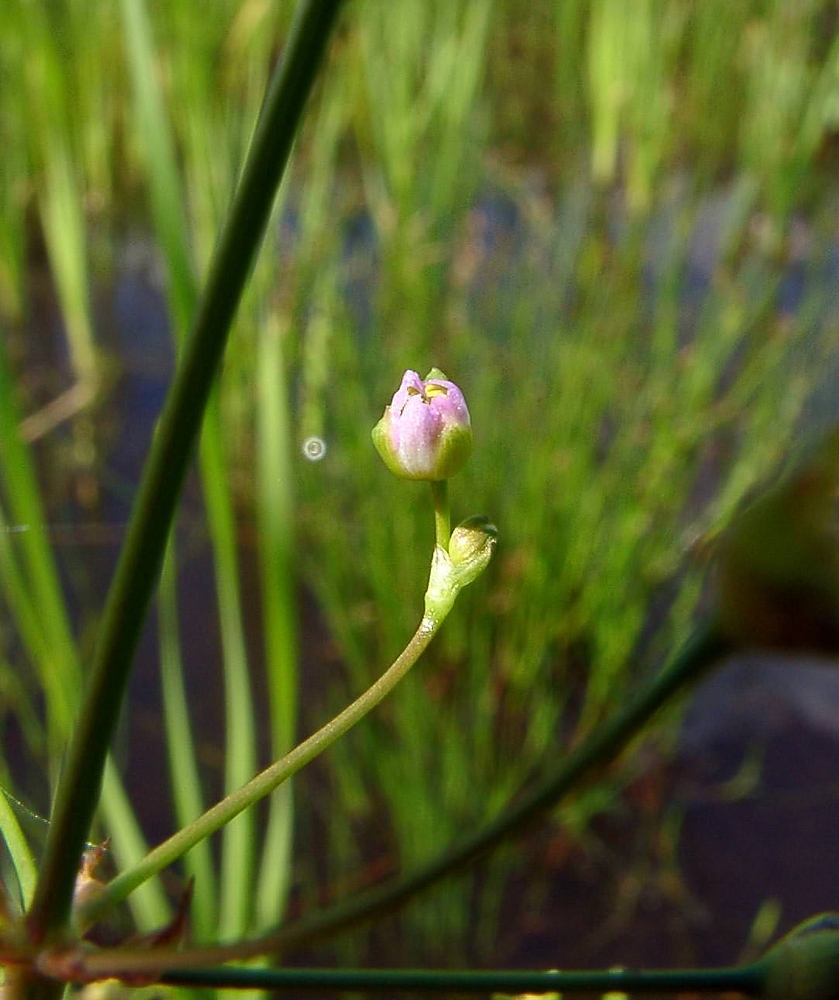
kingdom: Plantae
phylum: Tracheophyta
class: Liliopsida
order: Alismatales
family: Alismataceae
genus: Alisma
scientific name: Alisma plantago-aquatica
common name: Water-plantain
